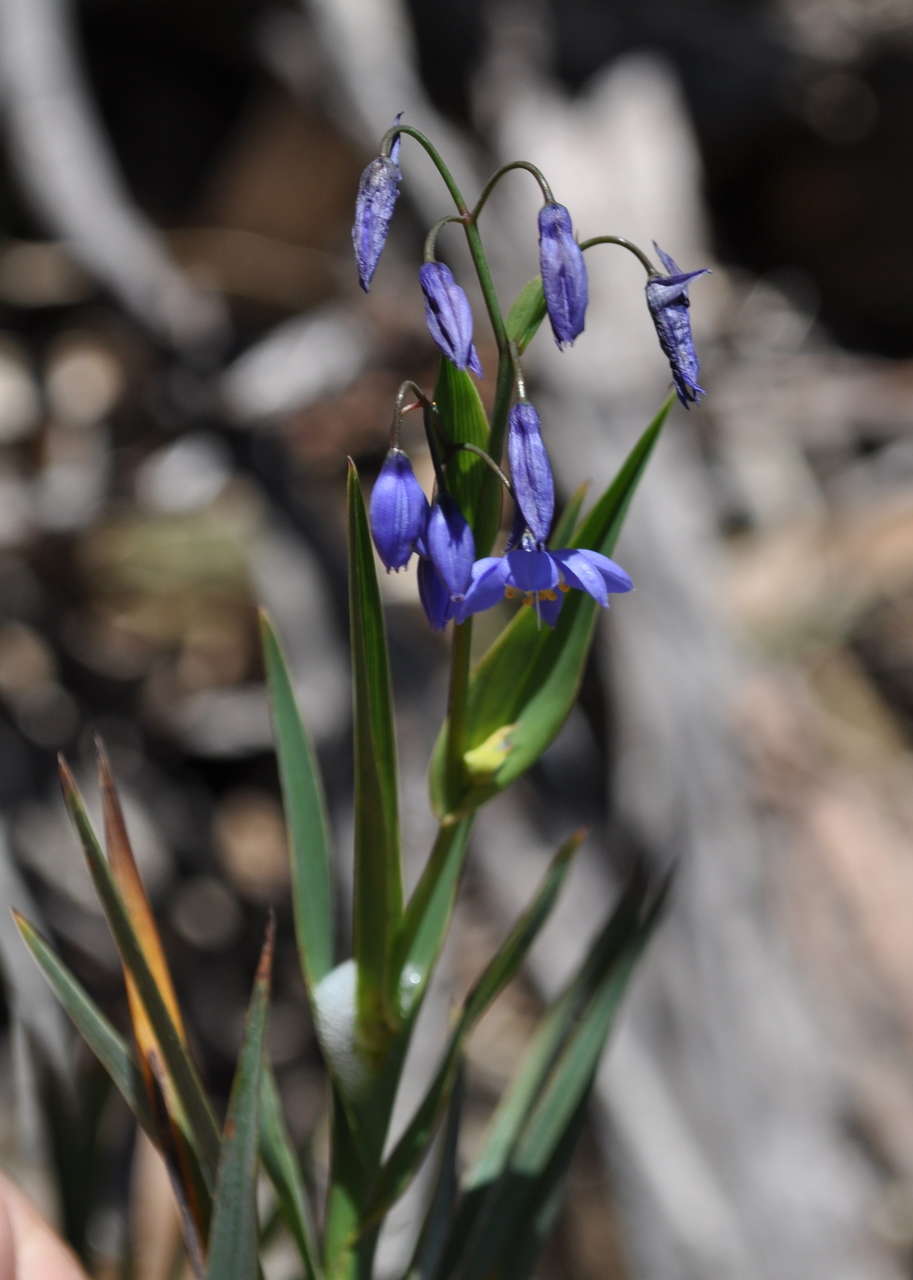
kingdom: Plantae
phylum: Tracheophyta
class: Liliopsida
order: Asparagales
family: Asphodelaceae
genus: Stypandra
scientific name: Stypandra glauca
